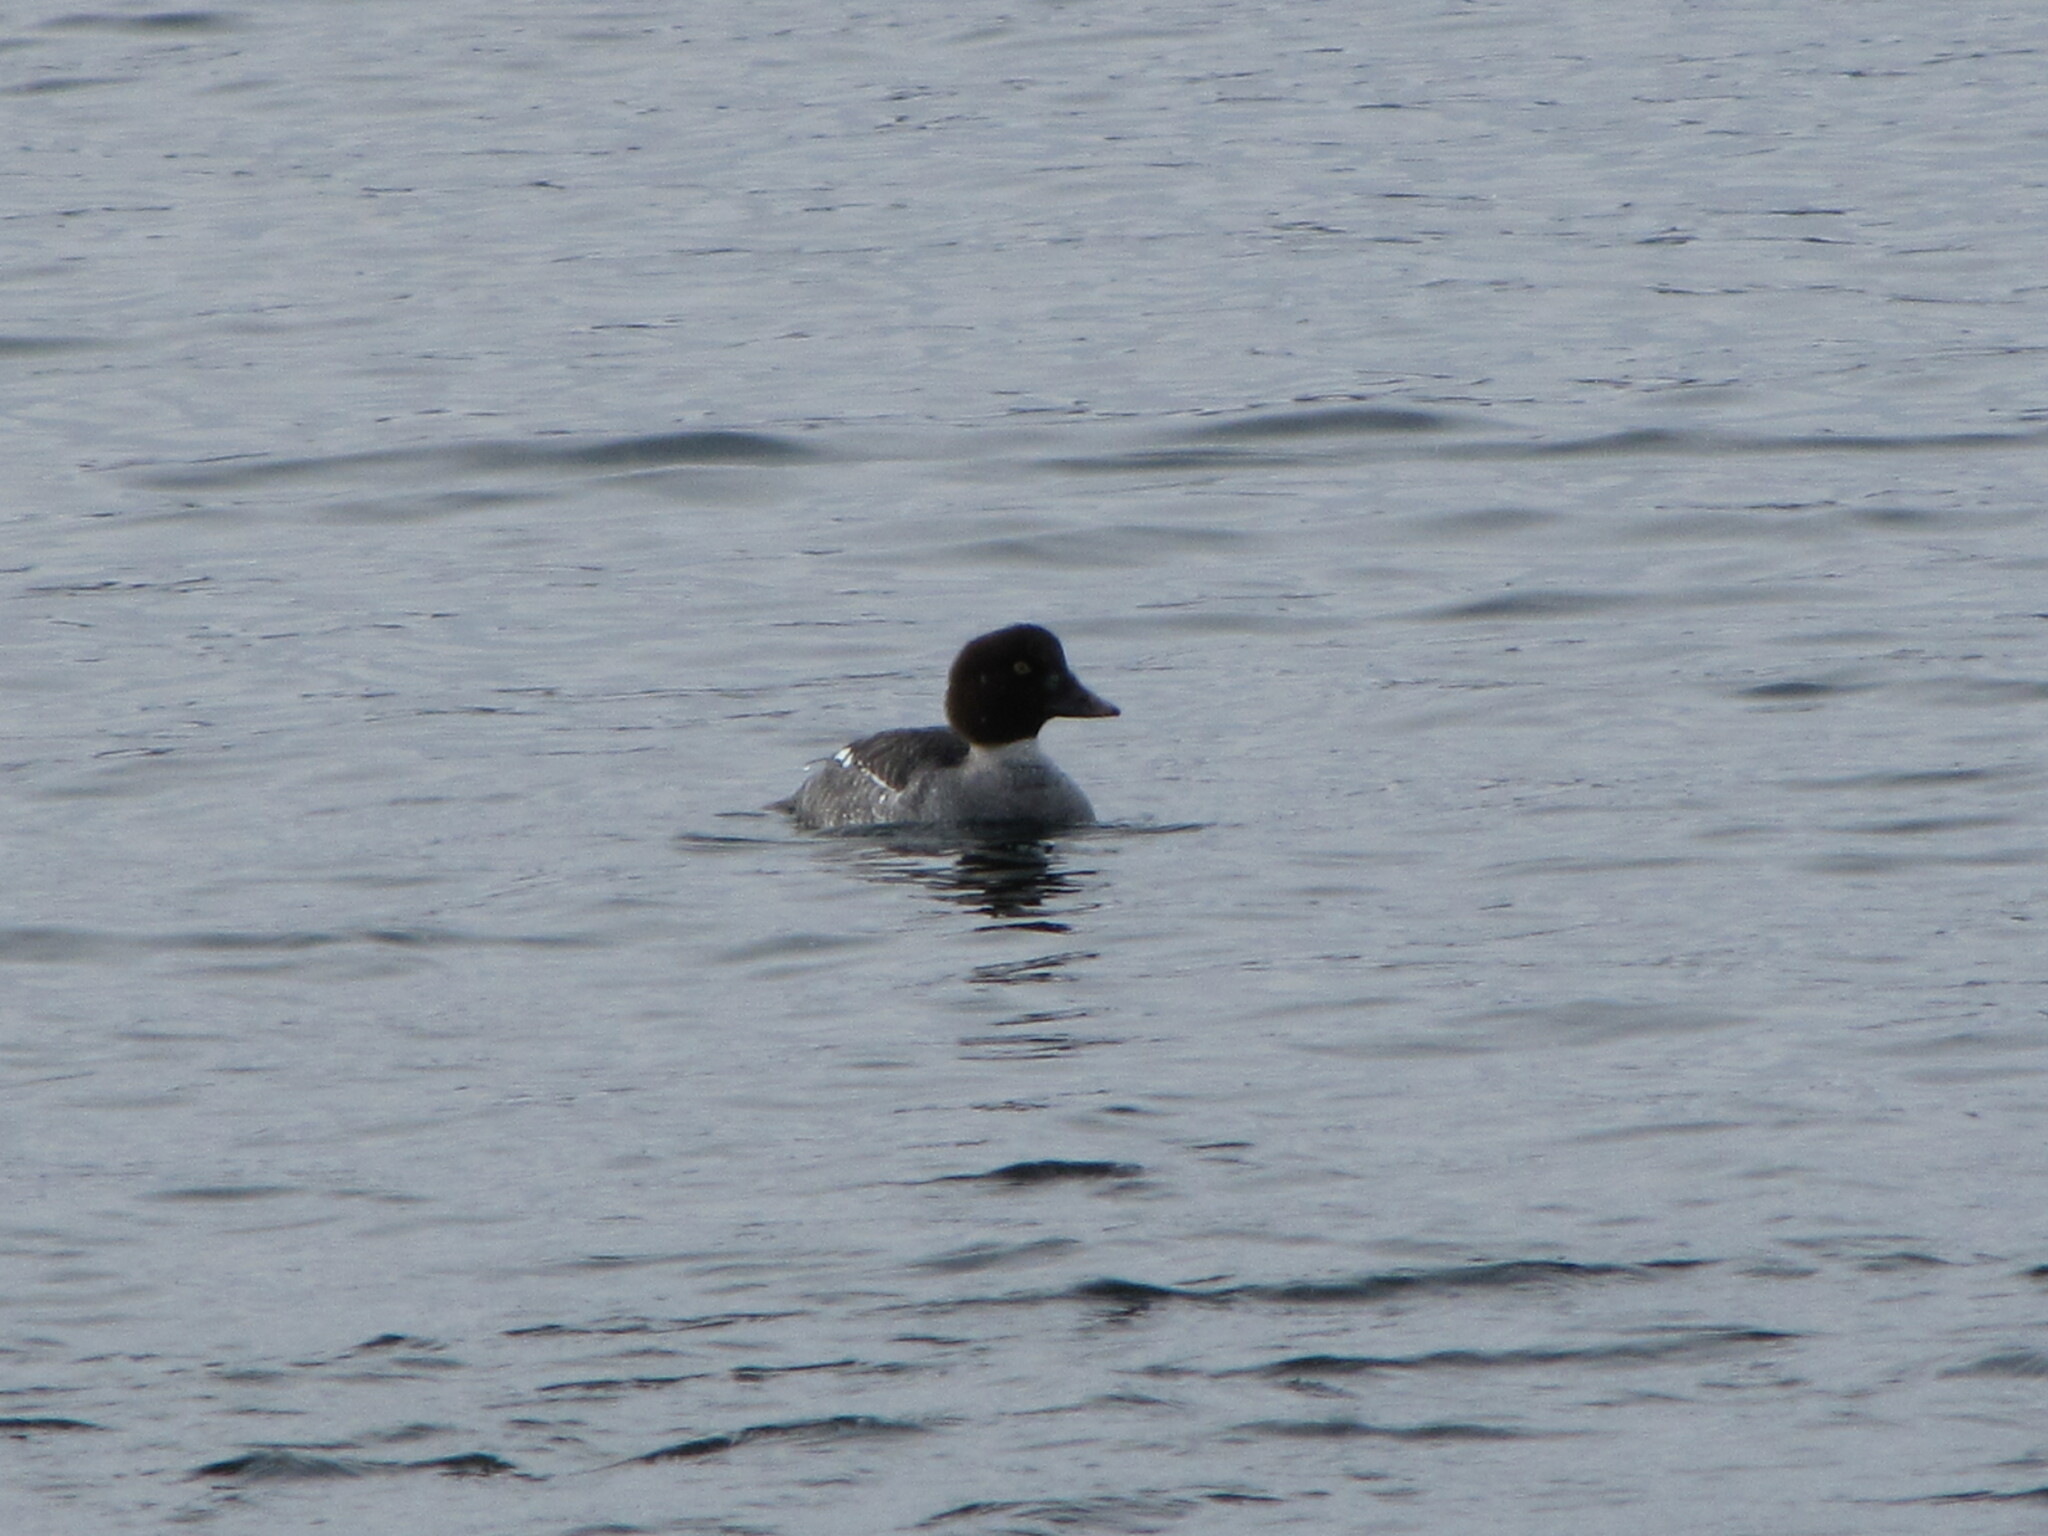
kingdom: Animalia
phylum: Chordata
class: Aves
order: Anseriformes
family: Anatidae
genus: Bucephala
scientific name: Bucephala clangula
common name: Common goldeneye
